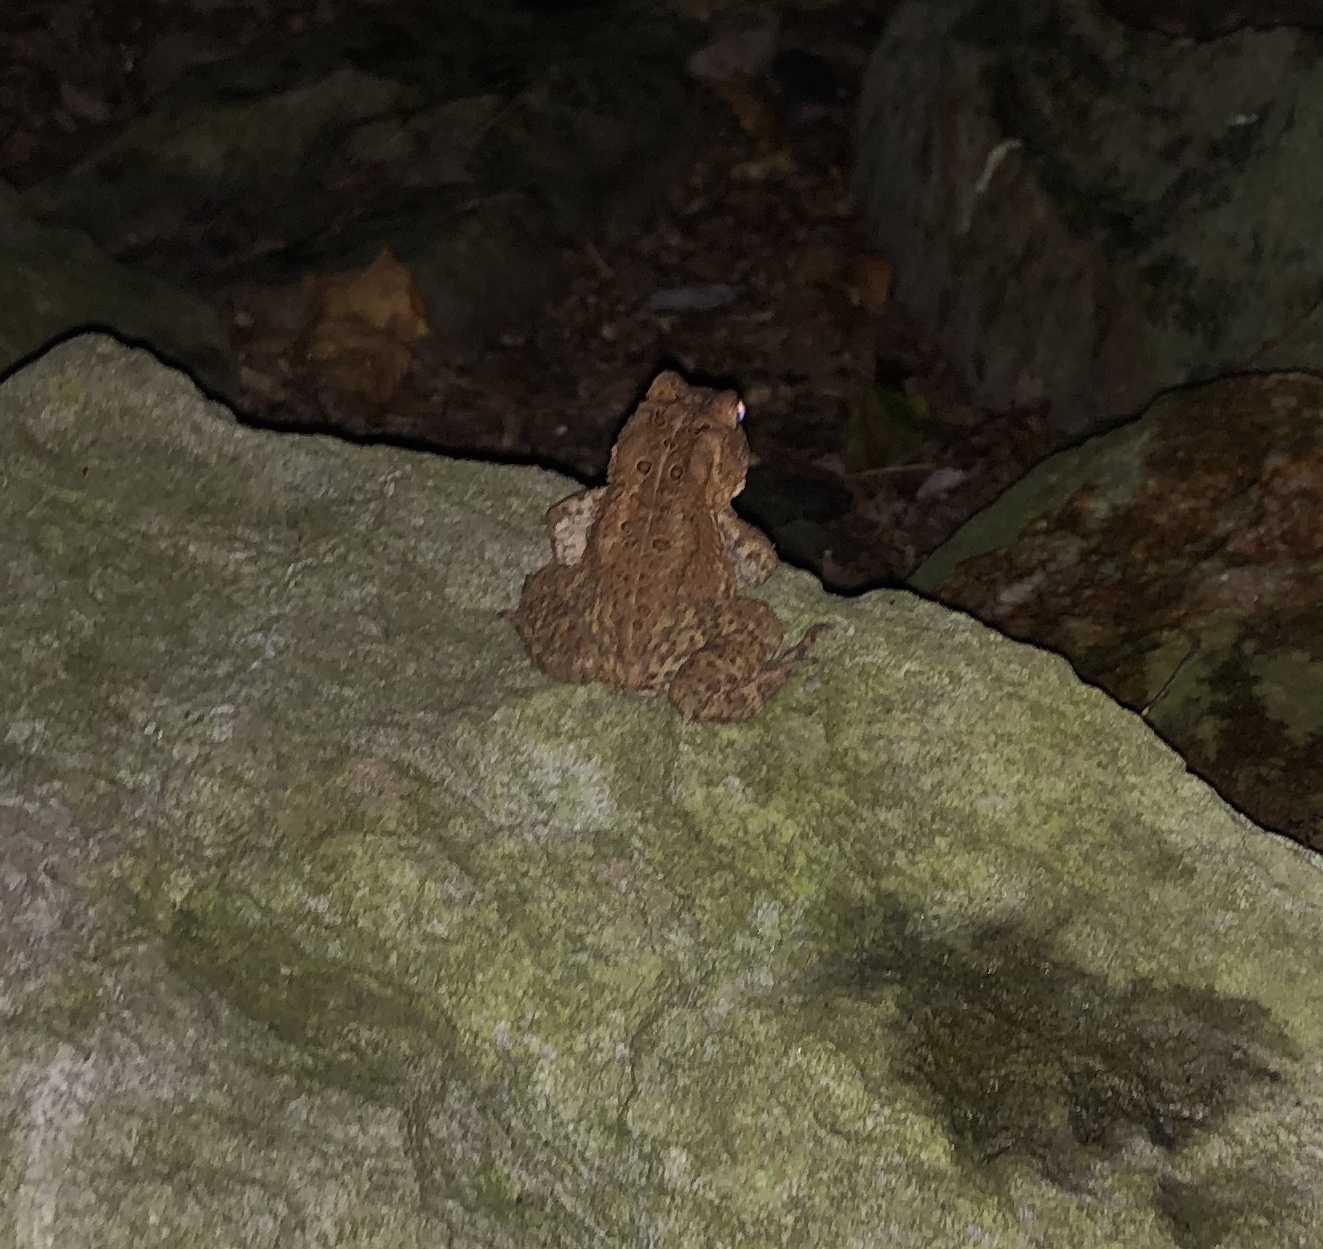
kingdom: Animalia
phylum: Chordata
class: Amphibia
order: Anura
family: Bufonidae
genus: Anaxyrus
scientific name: Anaxyrus americanus
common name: American toad
